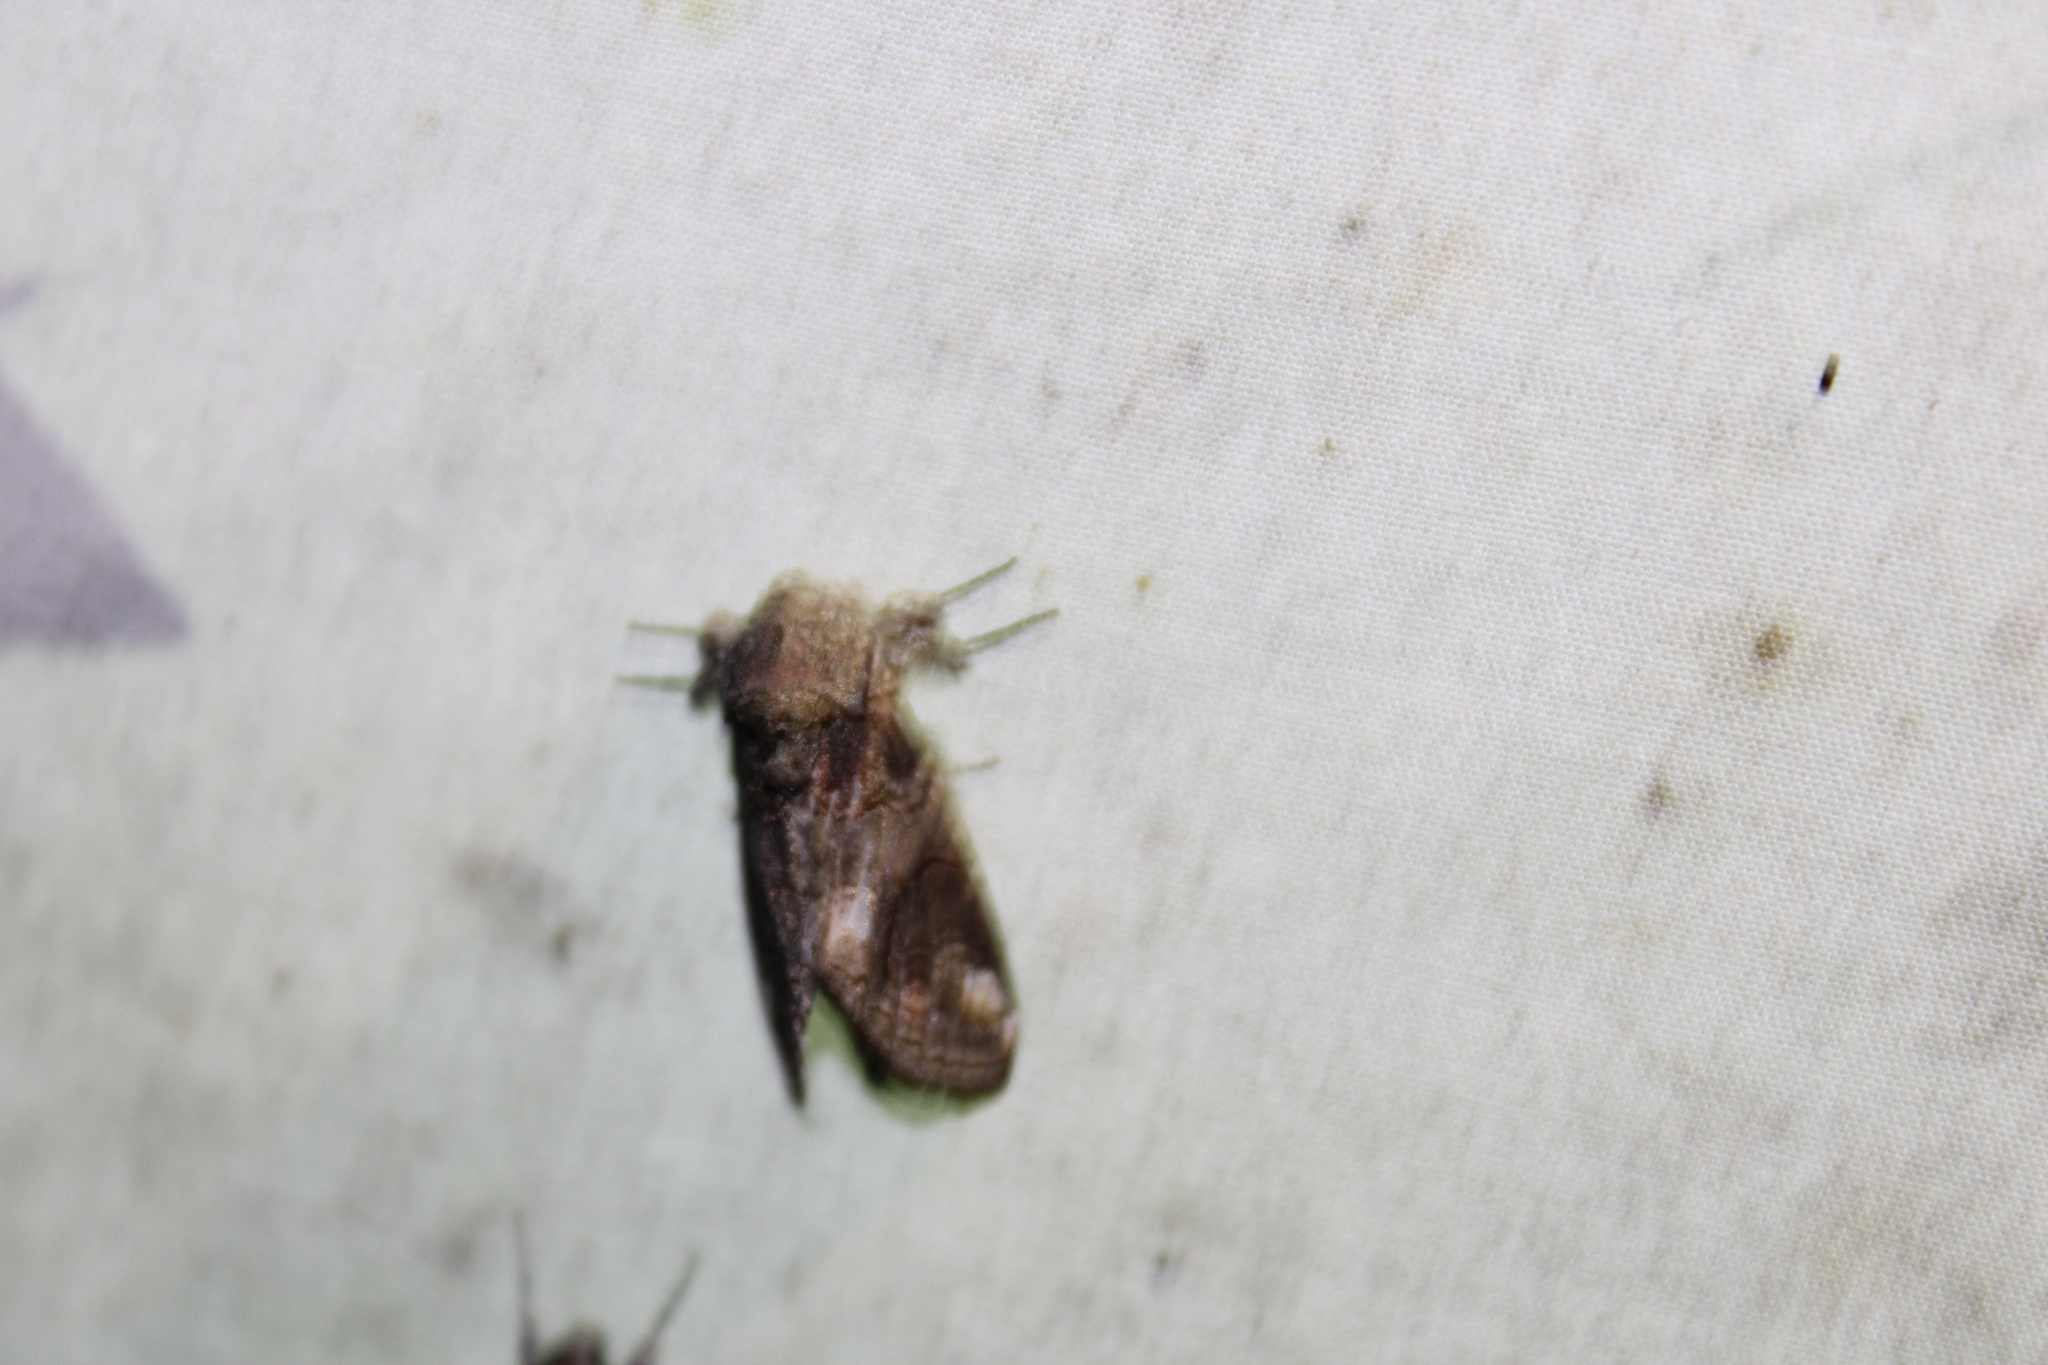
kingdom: Animalia
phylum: Arthropoda
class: Insecta
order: Lepidoptera
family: Notodontidae
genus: Heterocampa
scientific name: Heterocampa obliqua
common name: Oblique heterocampa
